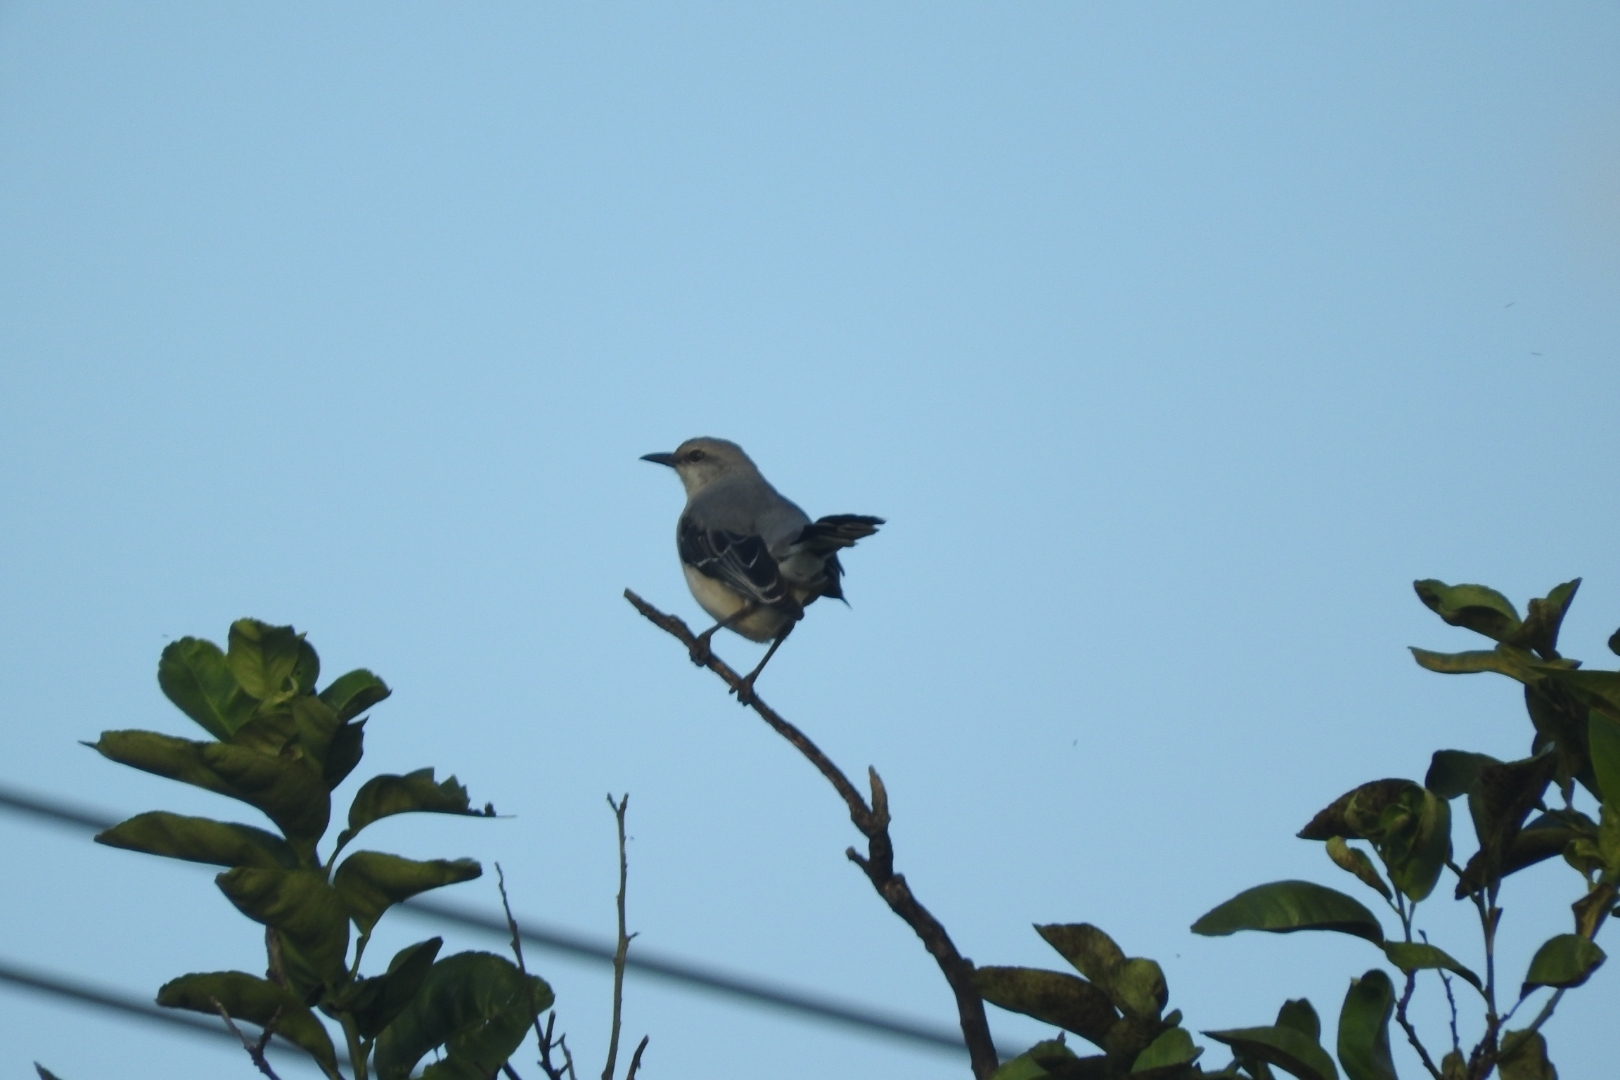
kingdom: Animalia
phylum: Chordata
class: Aves
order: Passeriformes
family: Mimidae
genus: Mimus
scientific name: Mimus gilvus
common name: Tropical mockingbird
